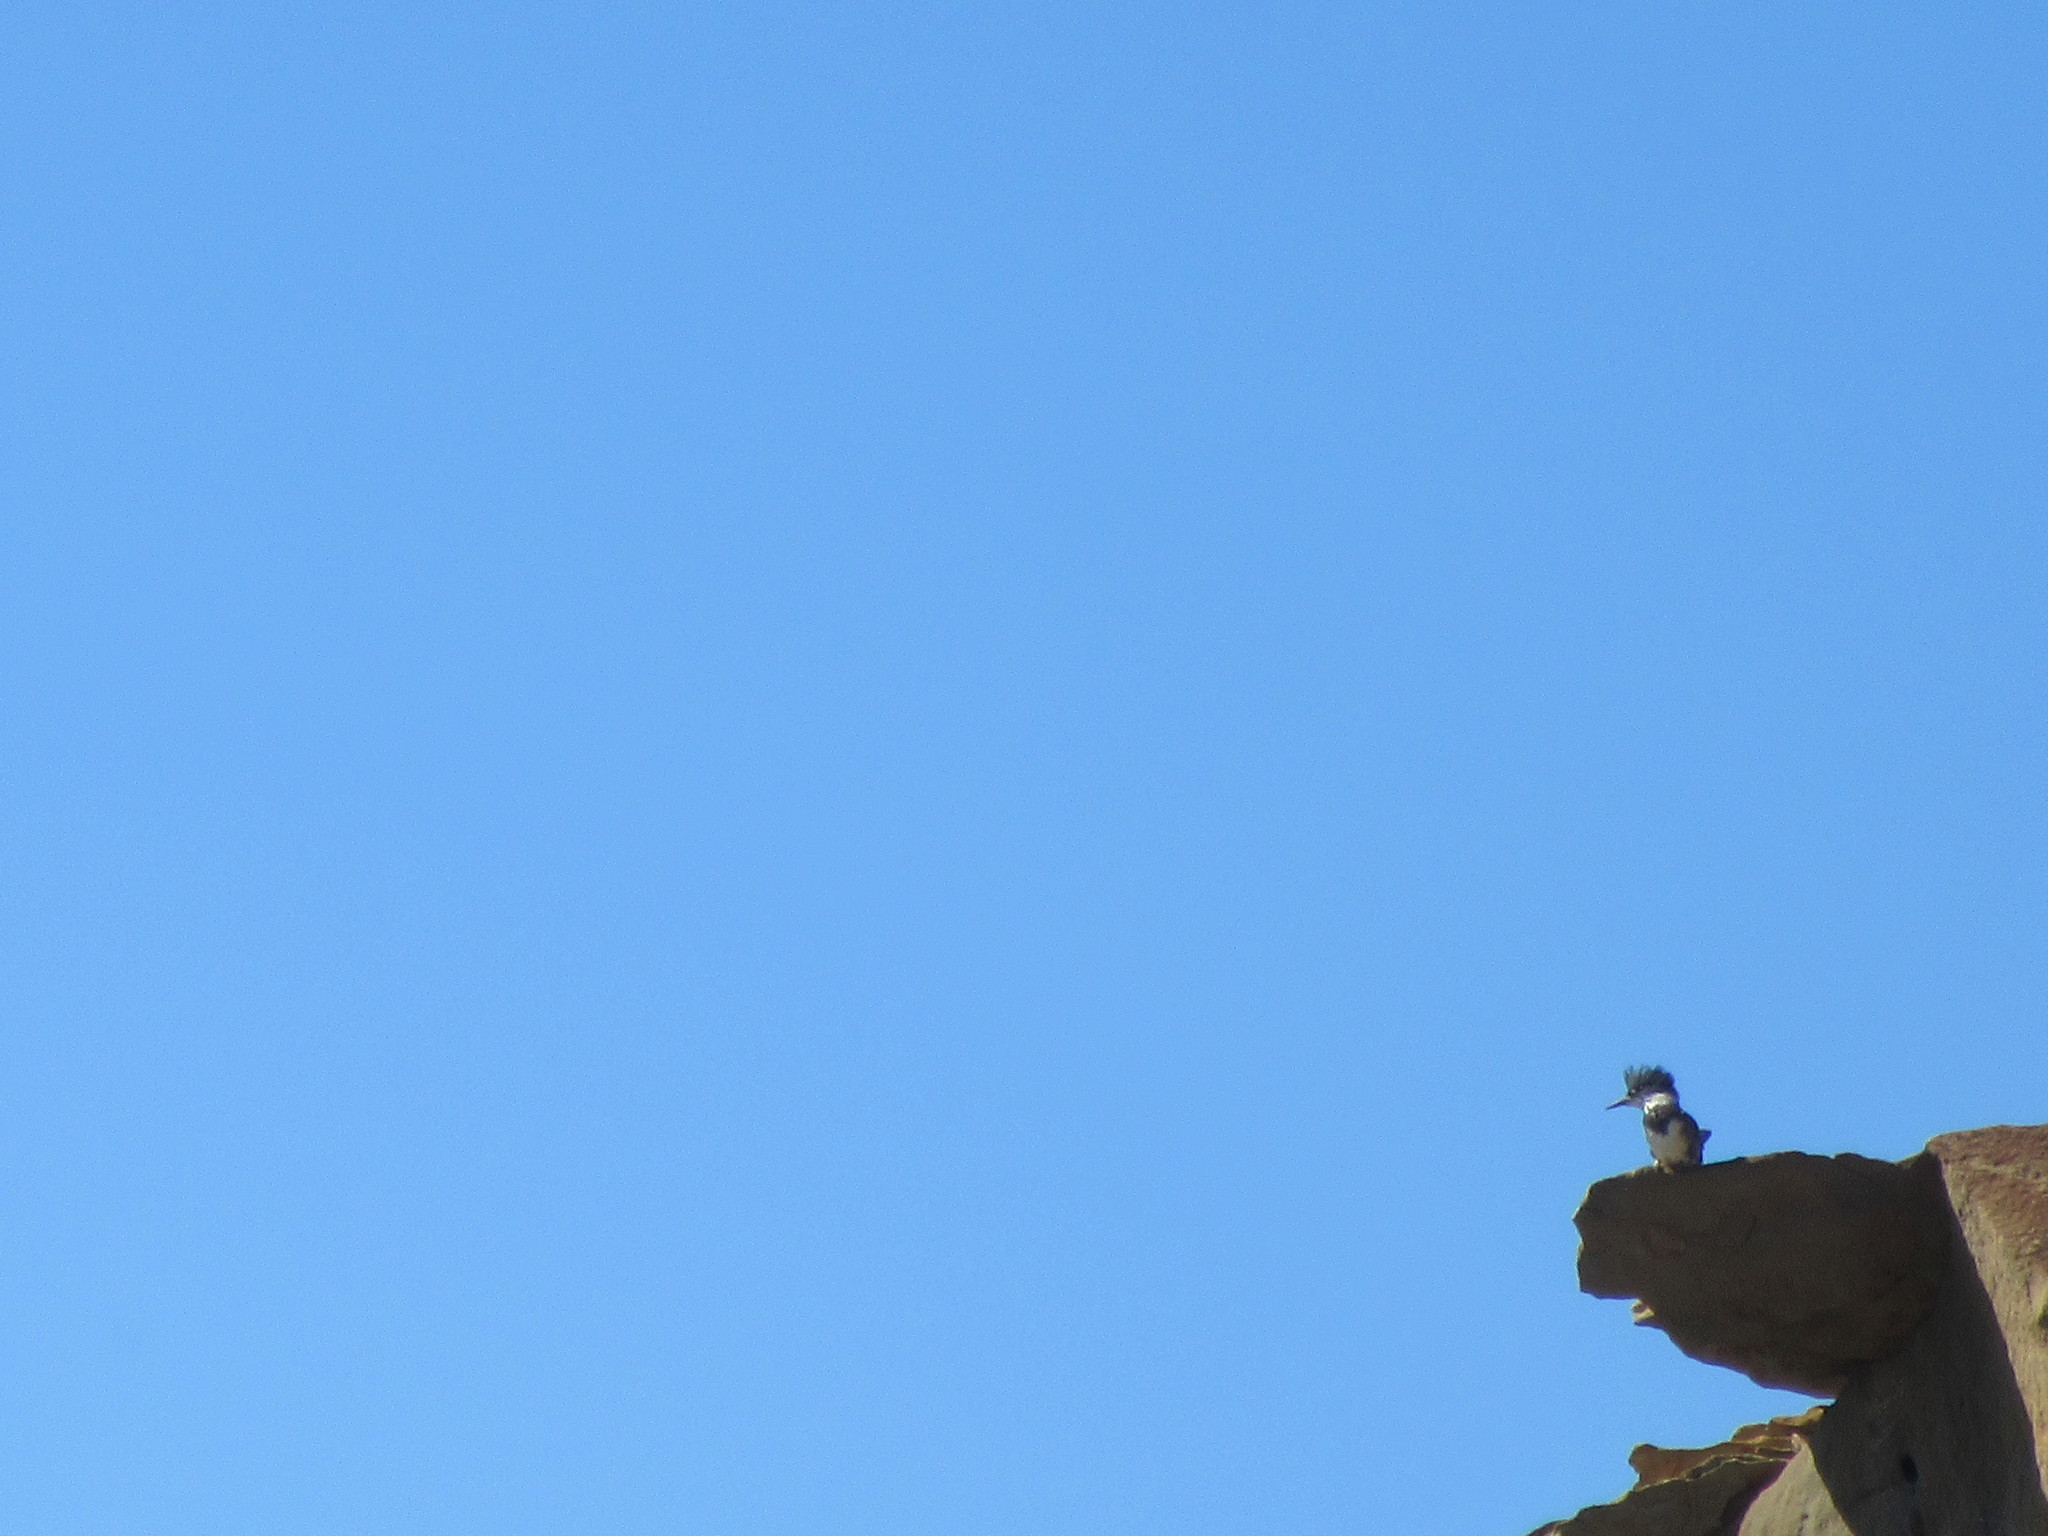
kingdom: Animalia
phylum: Chordata
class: Aves
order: Coraciiformes
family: Alcedinidae
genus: Megaceryle
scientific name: Megaceryle alcyon
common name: Belted kingfisher
